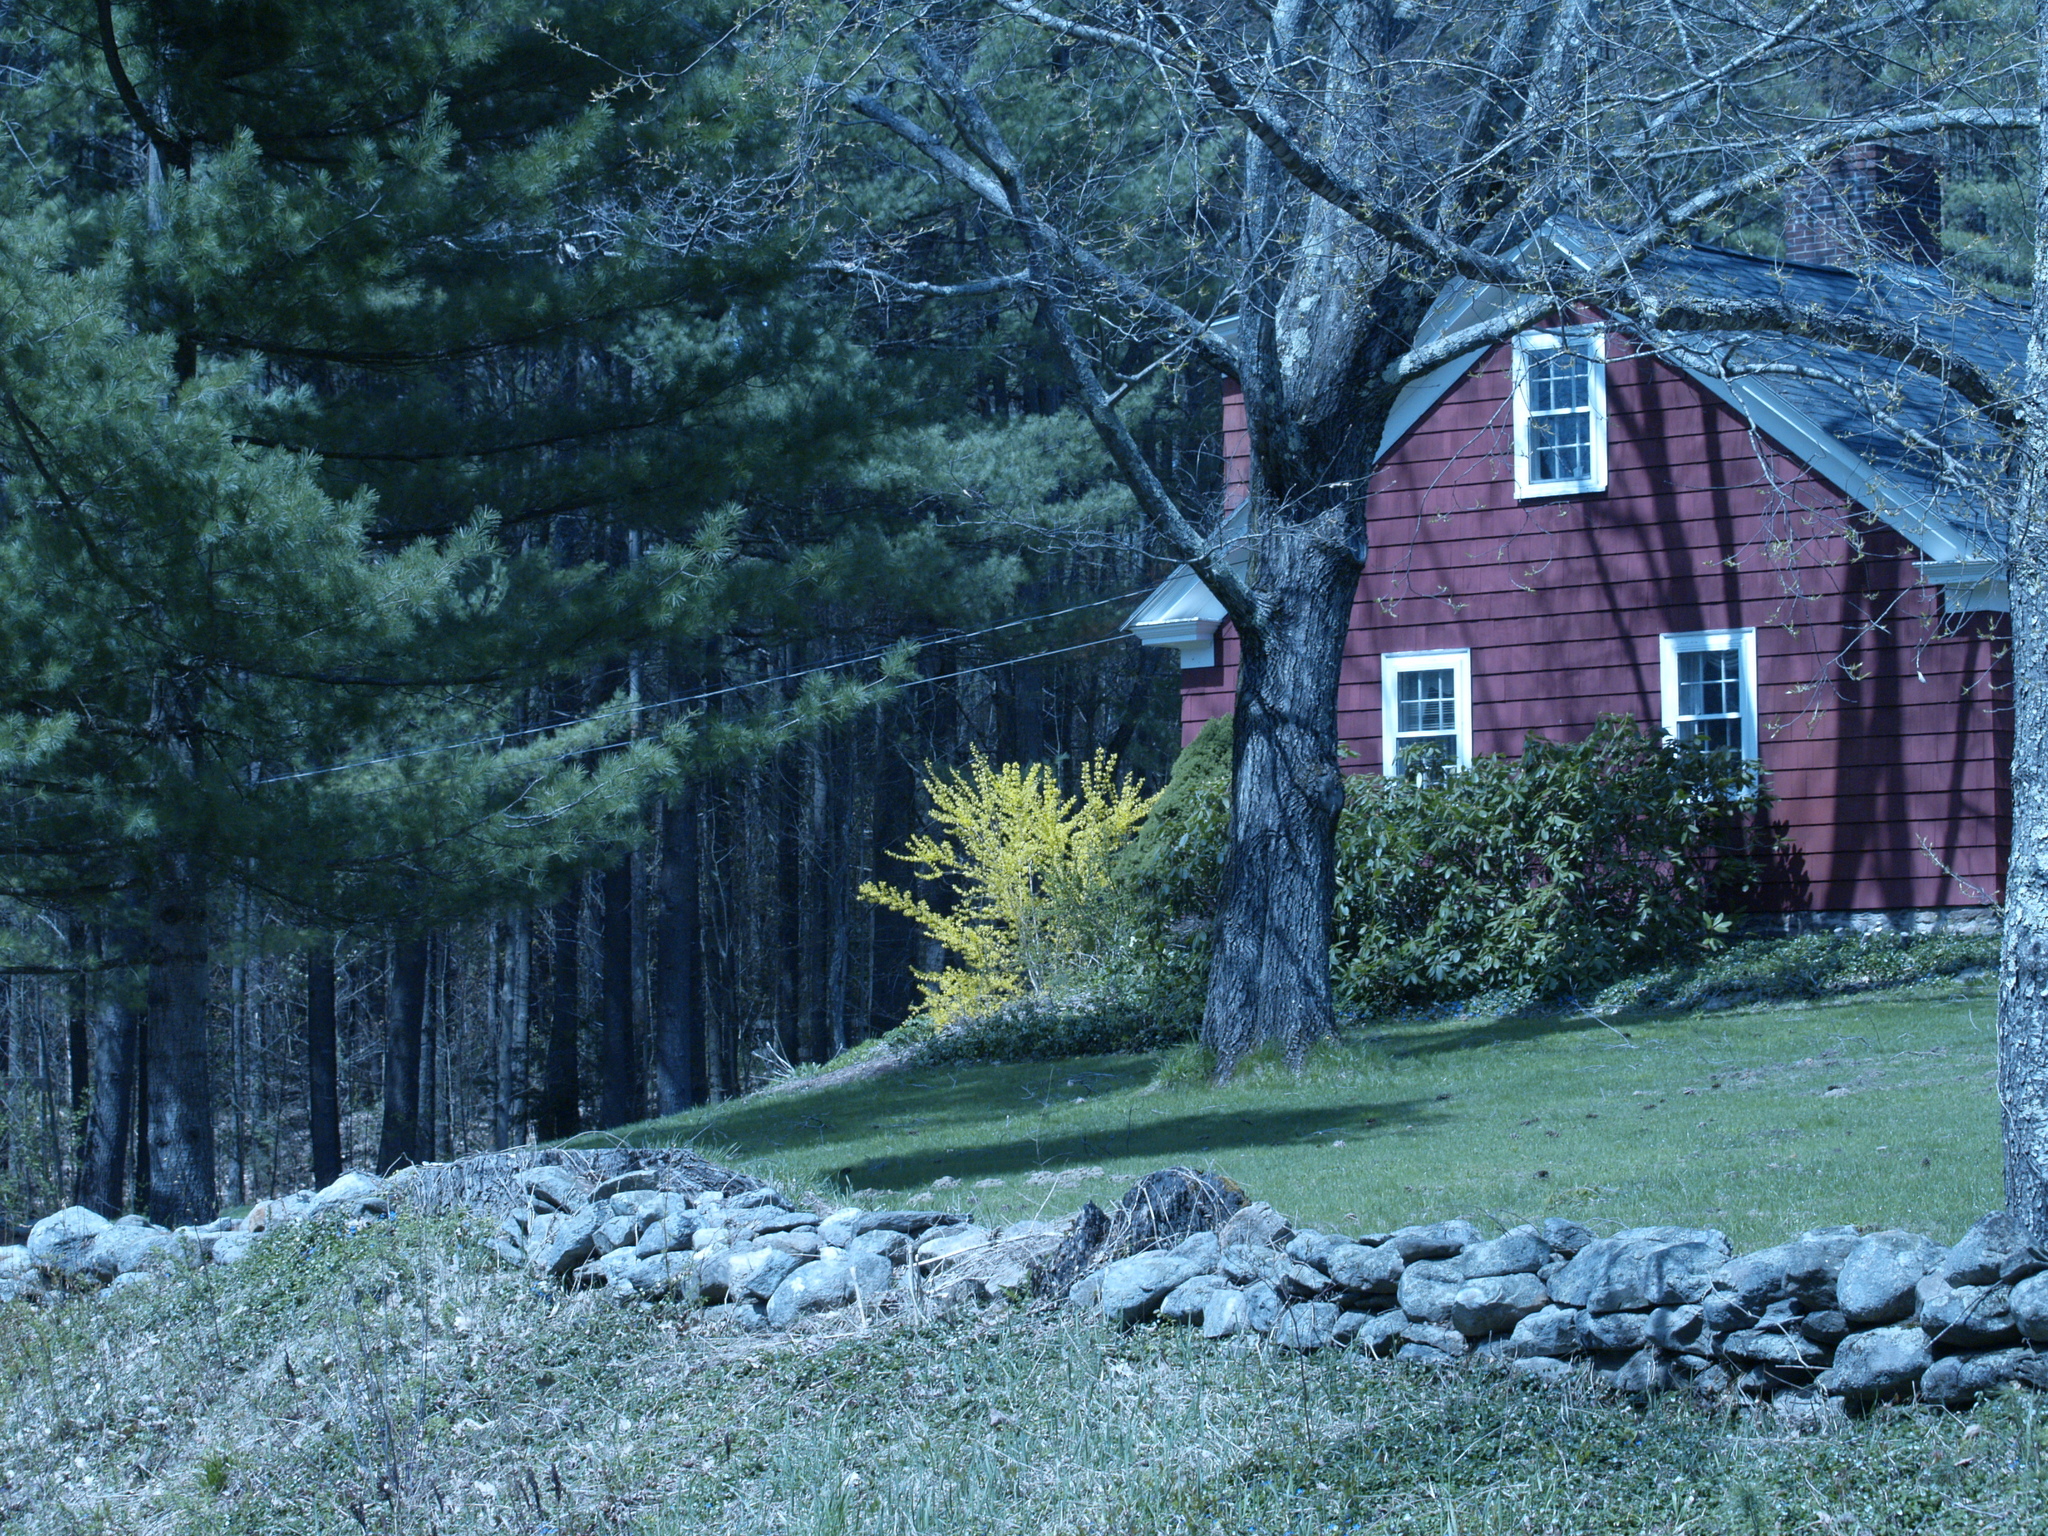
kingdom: Plantae
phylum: Tracheophyta
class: Pinopsida
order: Pinales
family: Pinaceae
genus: Pinus
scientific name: Pinus strobus
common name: Weymouth pine
